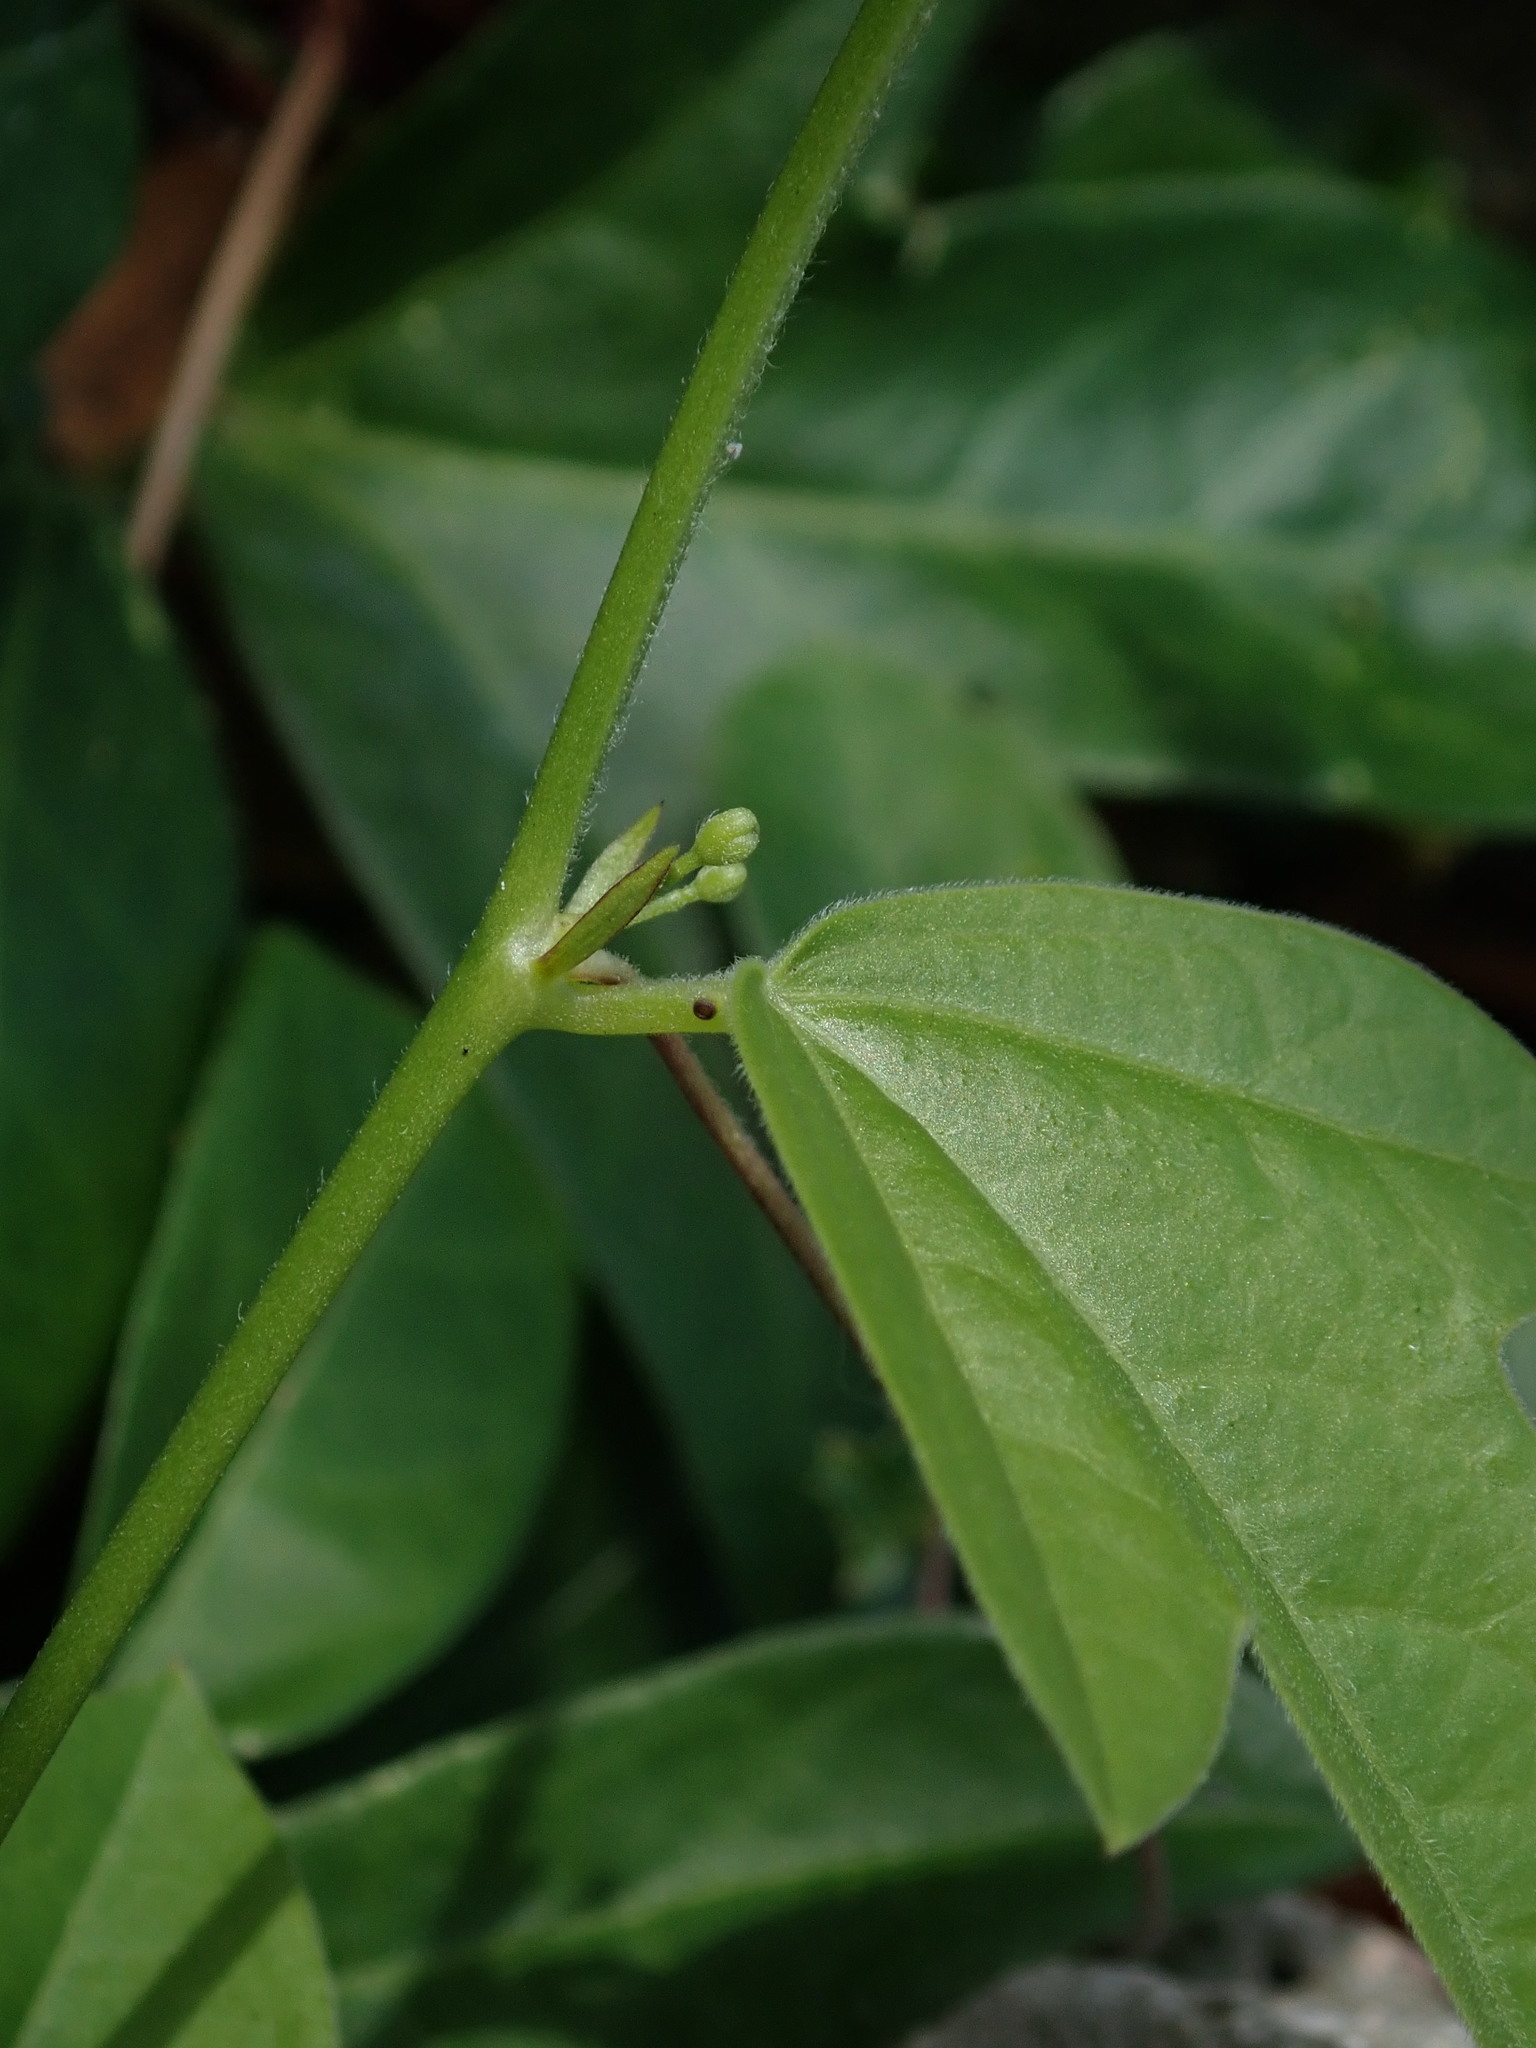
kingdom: Plantae
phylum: Tracheophyta
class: Magnoliopsida
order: Malpighiales
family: Passifloraceae
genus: Passiflora
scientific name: Passiflora suberosa
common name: Wild passionfruit
